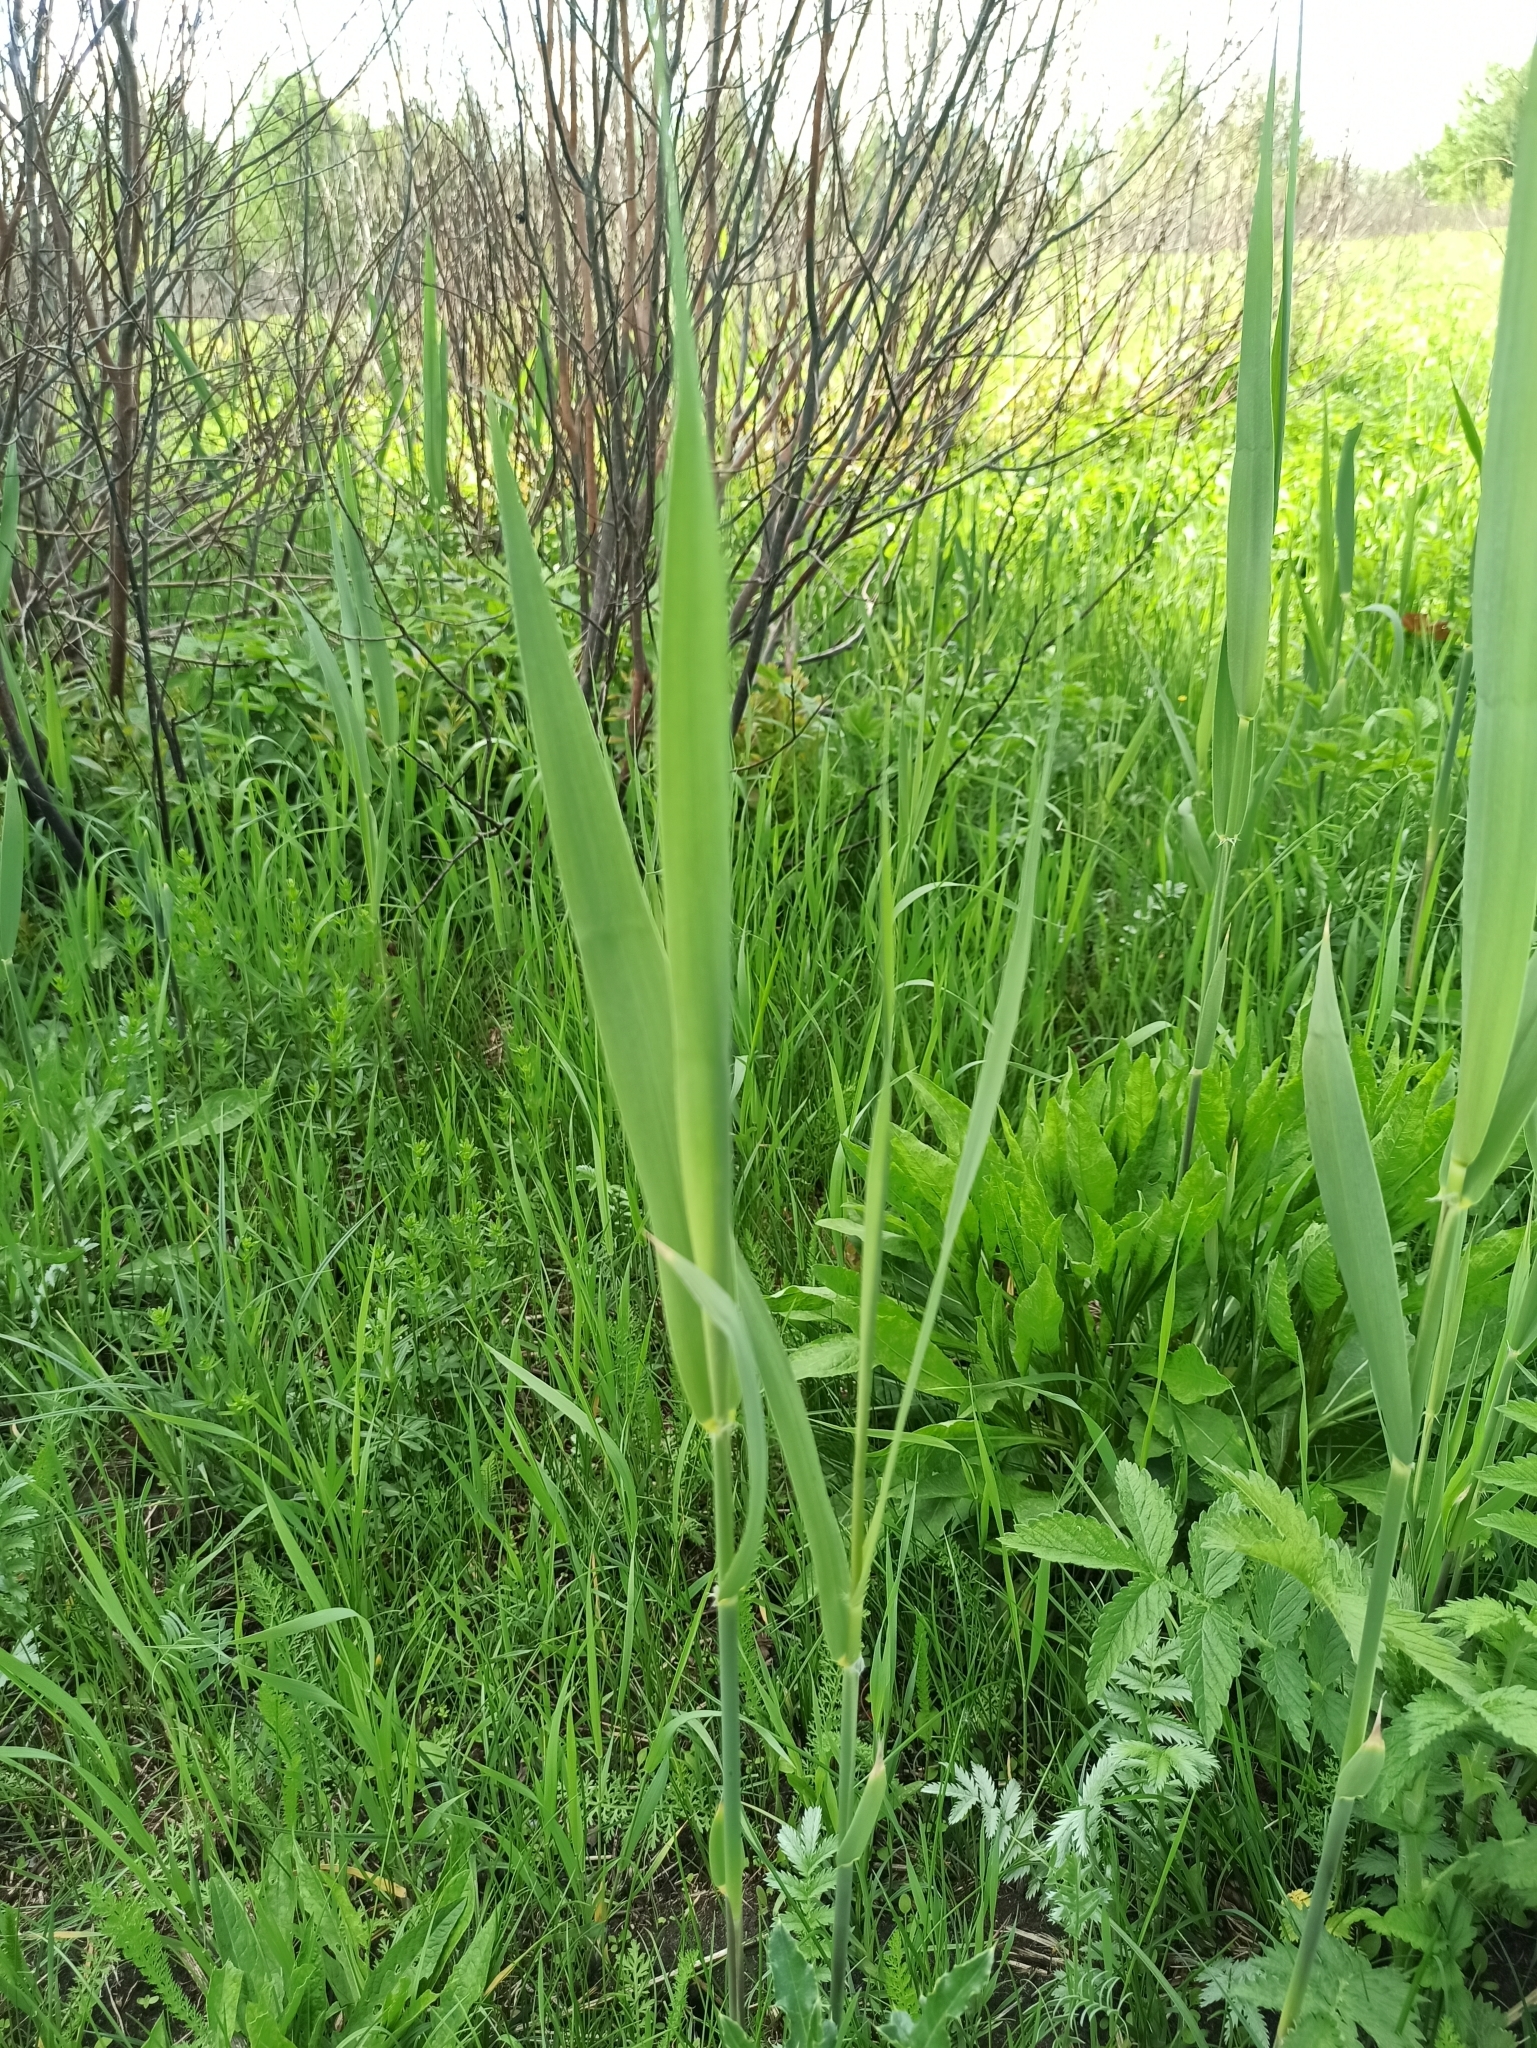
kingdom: Plantae
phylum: Tracheophyta
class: Liliopsida
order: Poales
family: Poaceae
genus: Phragmites
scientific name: Phragmites australis
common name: Common reed
